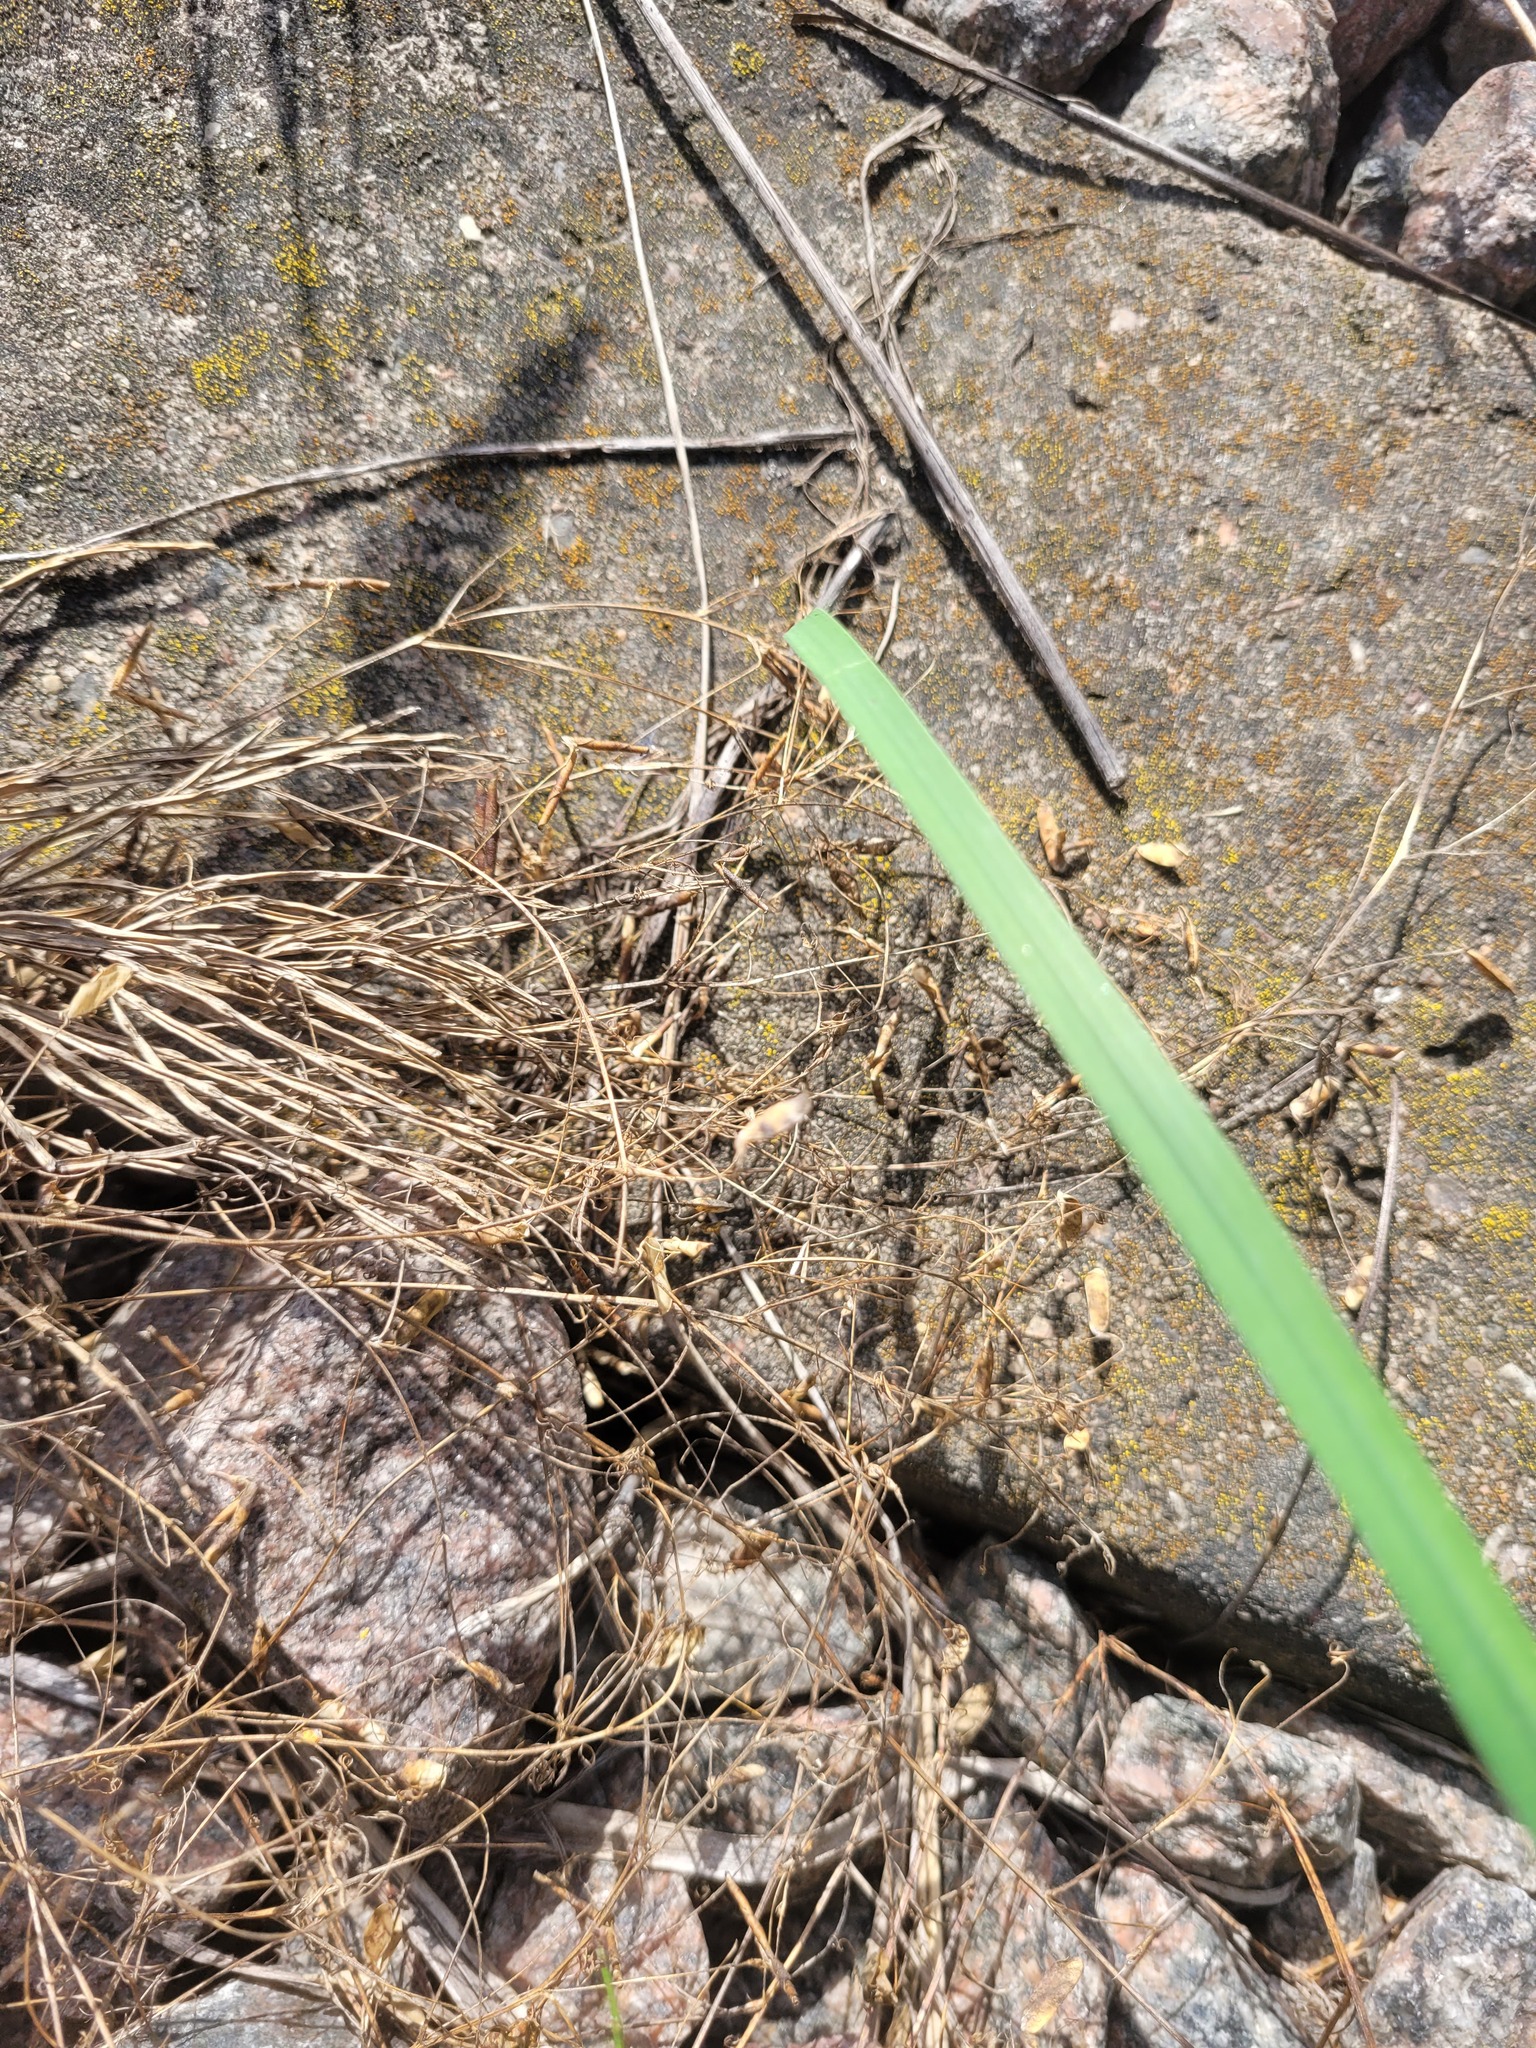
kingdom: Plantae
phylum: Tracheophyta
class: Magnoliopsida
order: Fabales
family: Fabaceae
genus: Vicia
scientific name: Vicia tetrasperma
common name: Smooth tare
